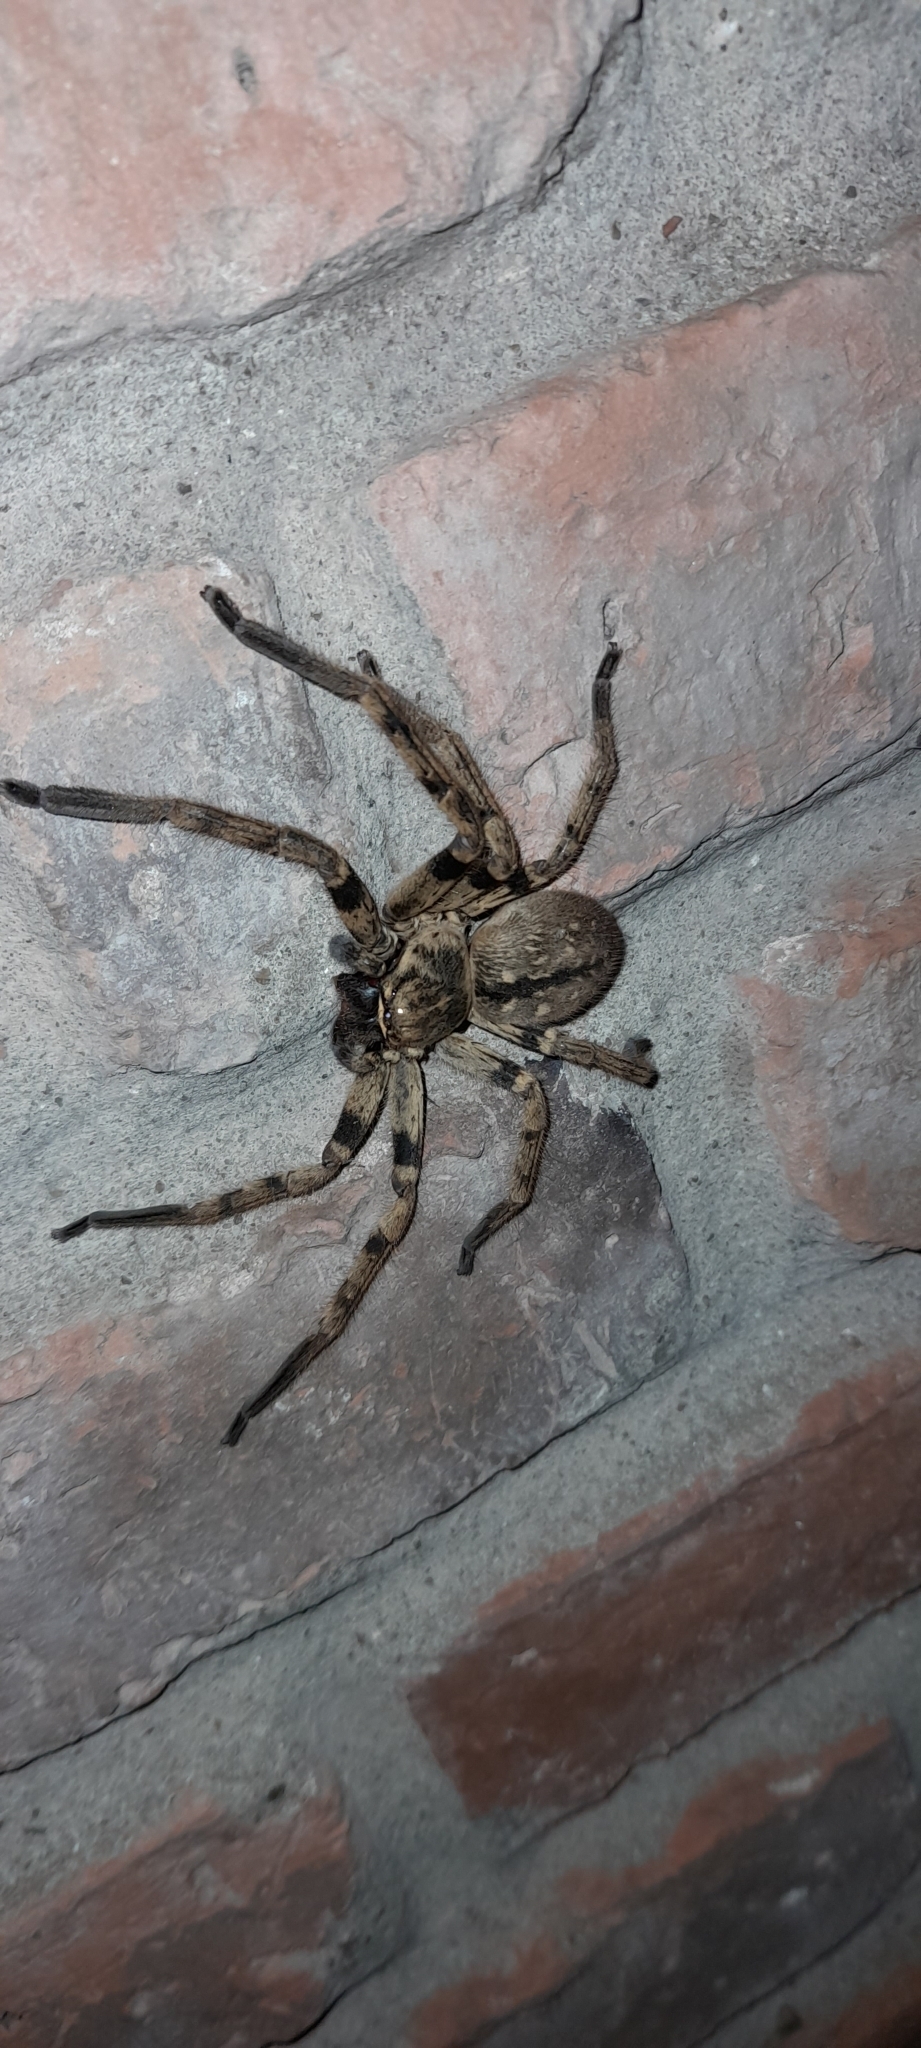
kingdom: Animalia
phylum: Arthropoda
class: Arachnida
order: Araneae
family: Sparassidae
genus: Polybetes
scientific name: Polybetes pythagoricus
